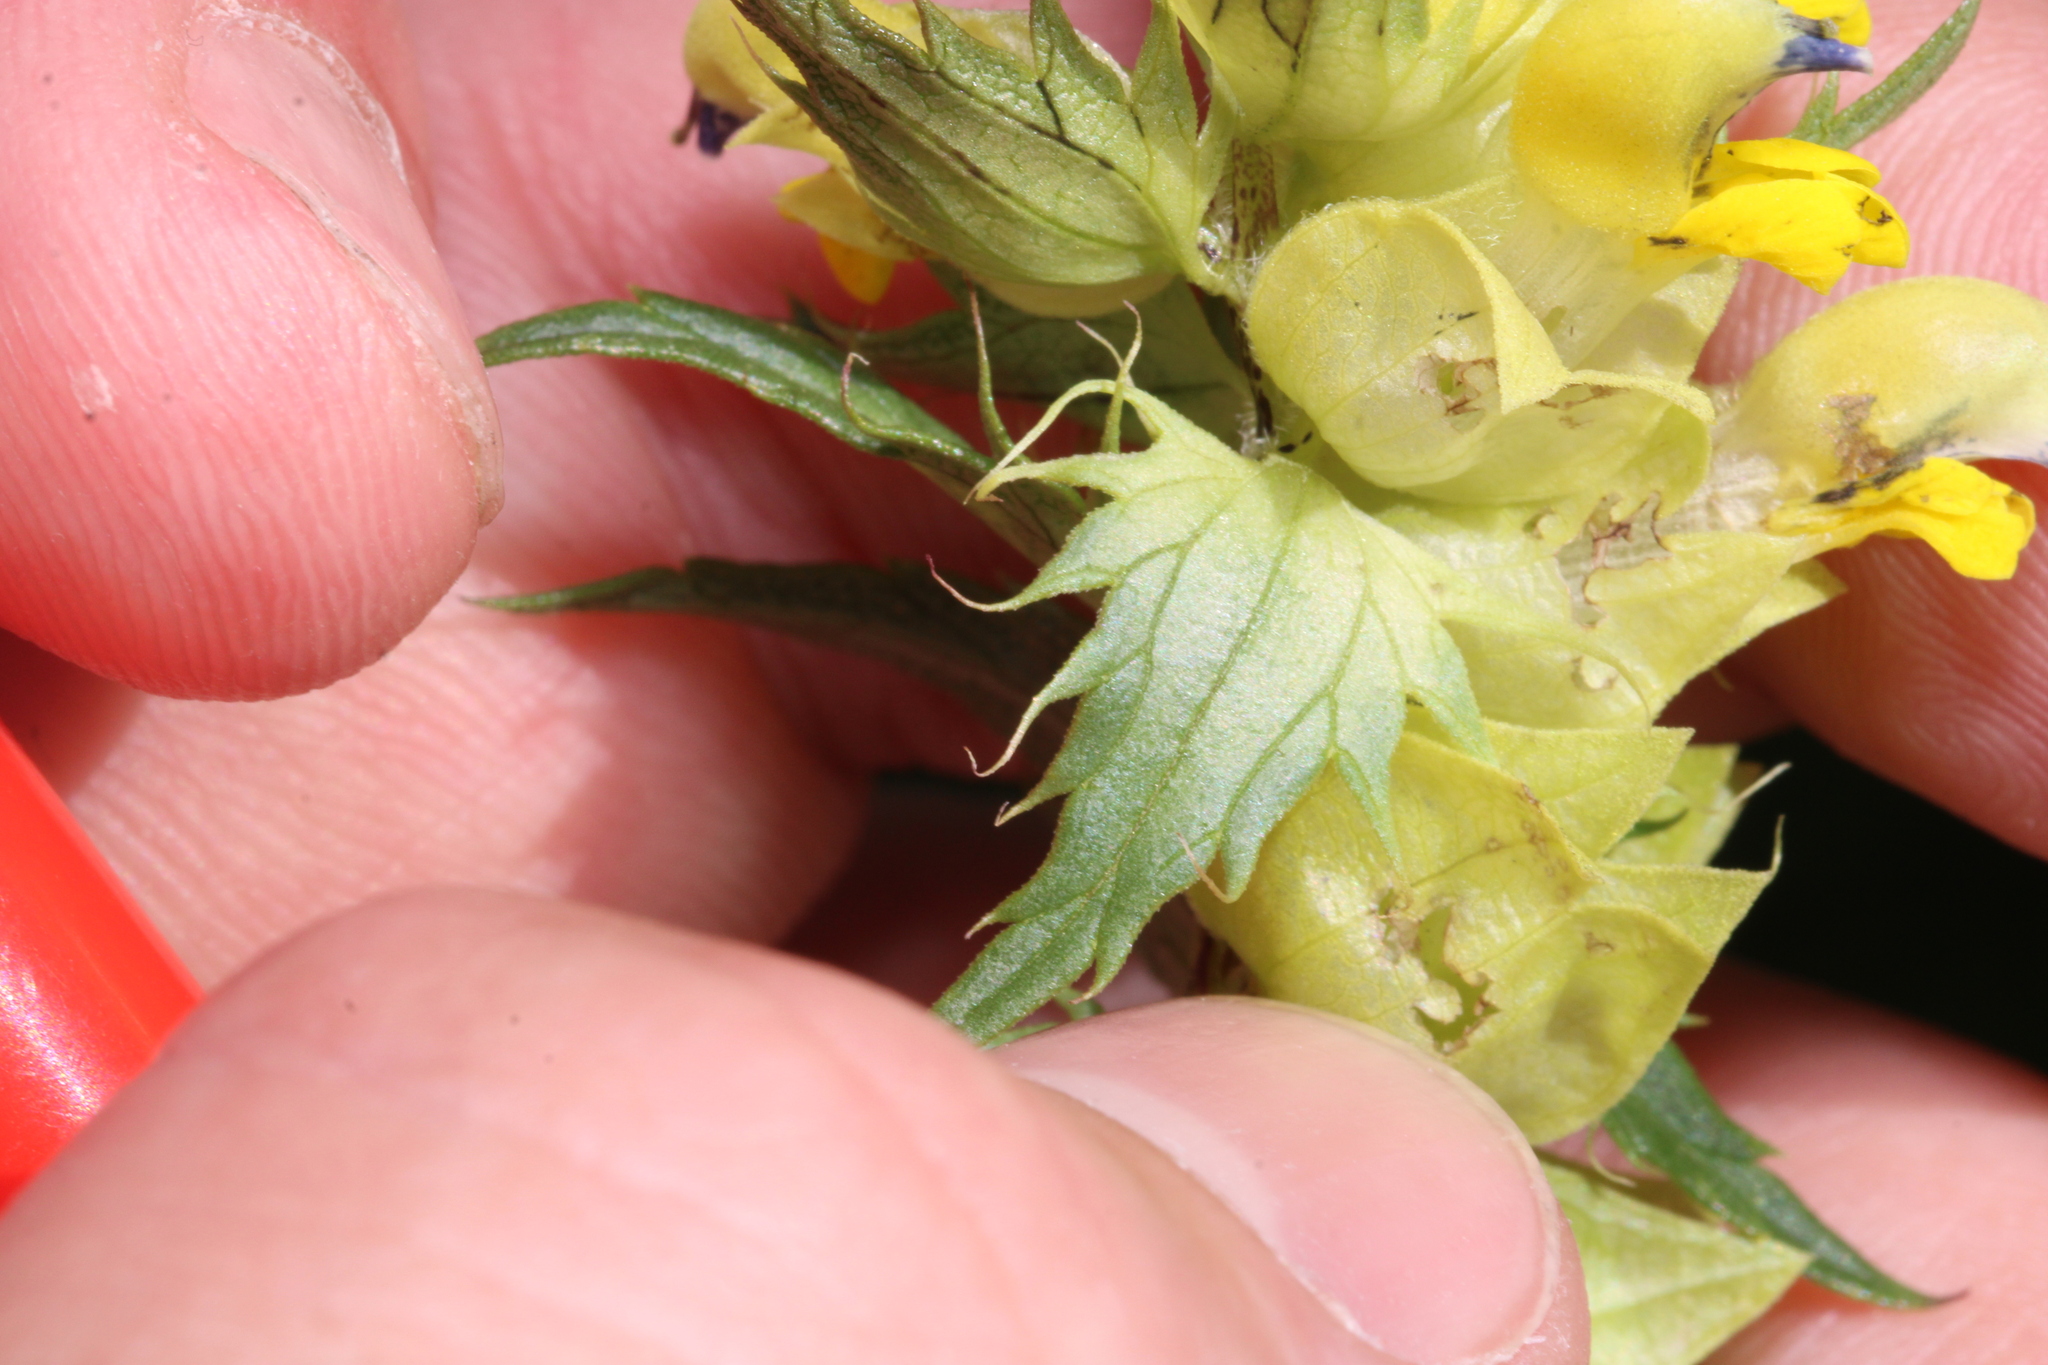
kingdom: Plantae
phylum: Tracheophyta
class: Magnoliopsida
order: Lamiales
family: Orobanchaceae
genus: Rhinanthus
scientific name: Rhinanthus glacialis
